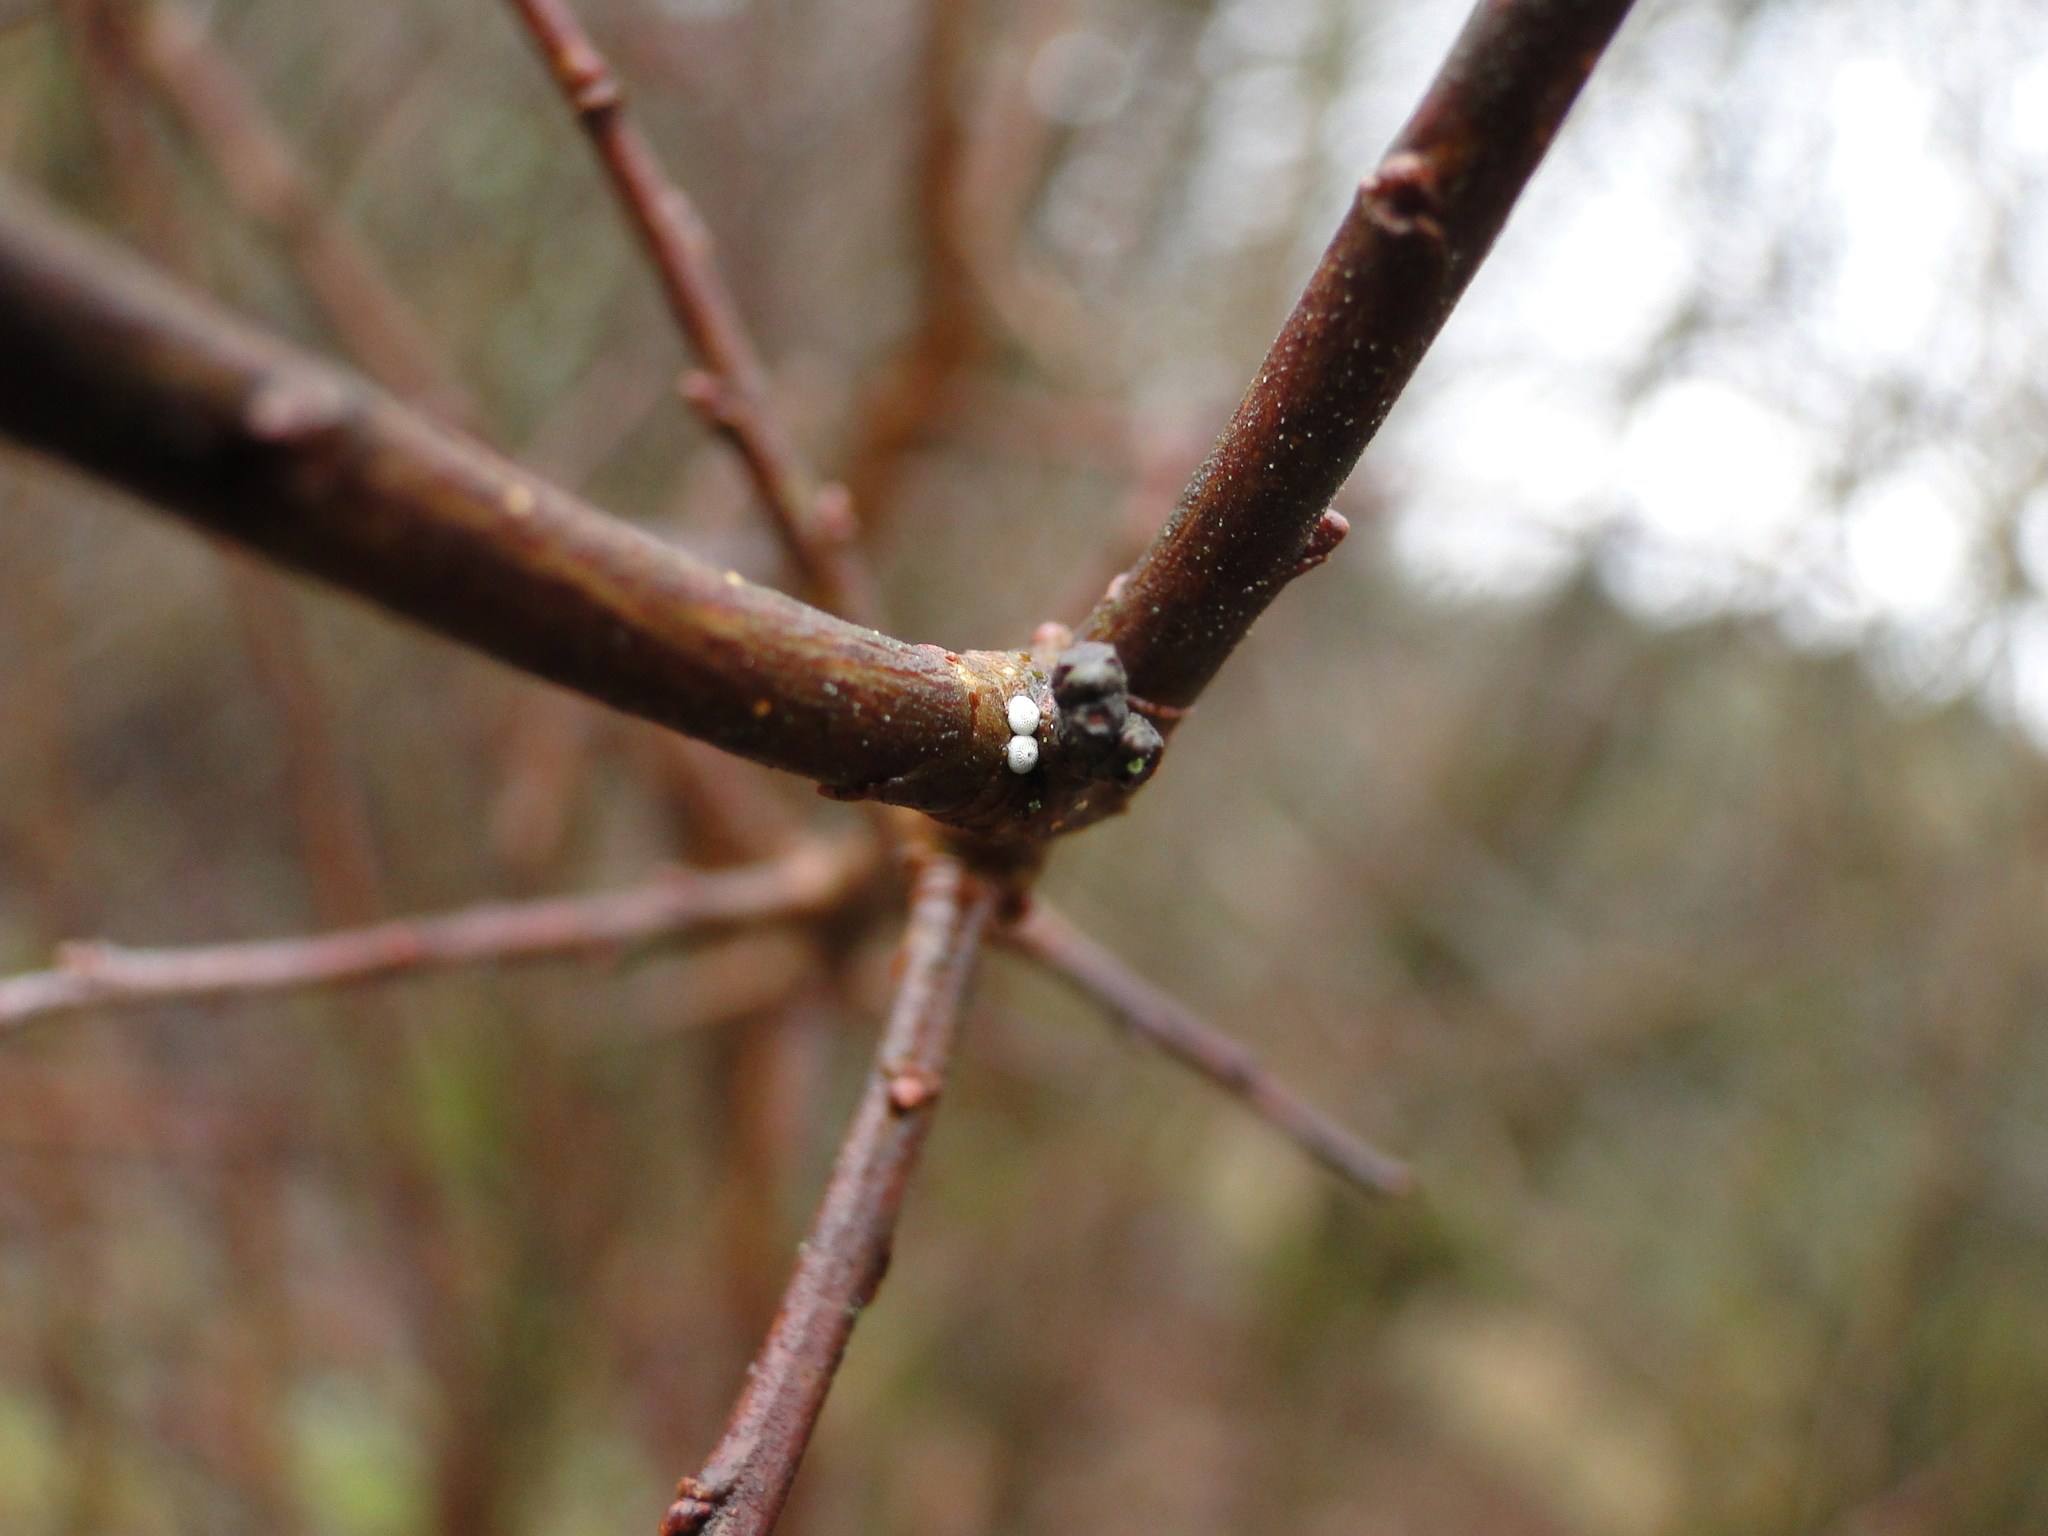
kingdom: Animalia
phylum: Arthropoda
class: Insecta
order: Lepidoptera
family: Lycaenidae
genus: Thecla
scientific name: Thecla betulae
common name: Brown hairstreak
